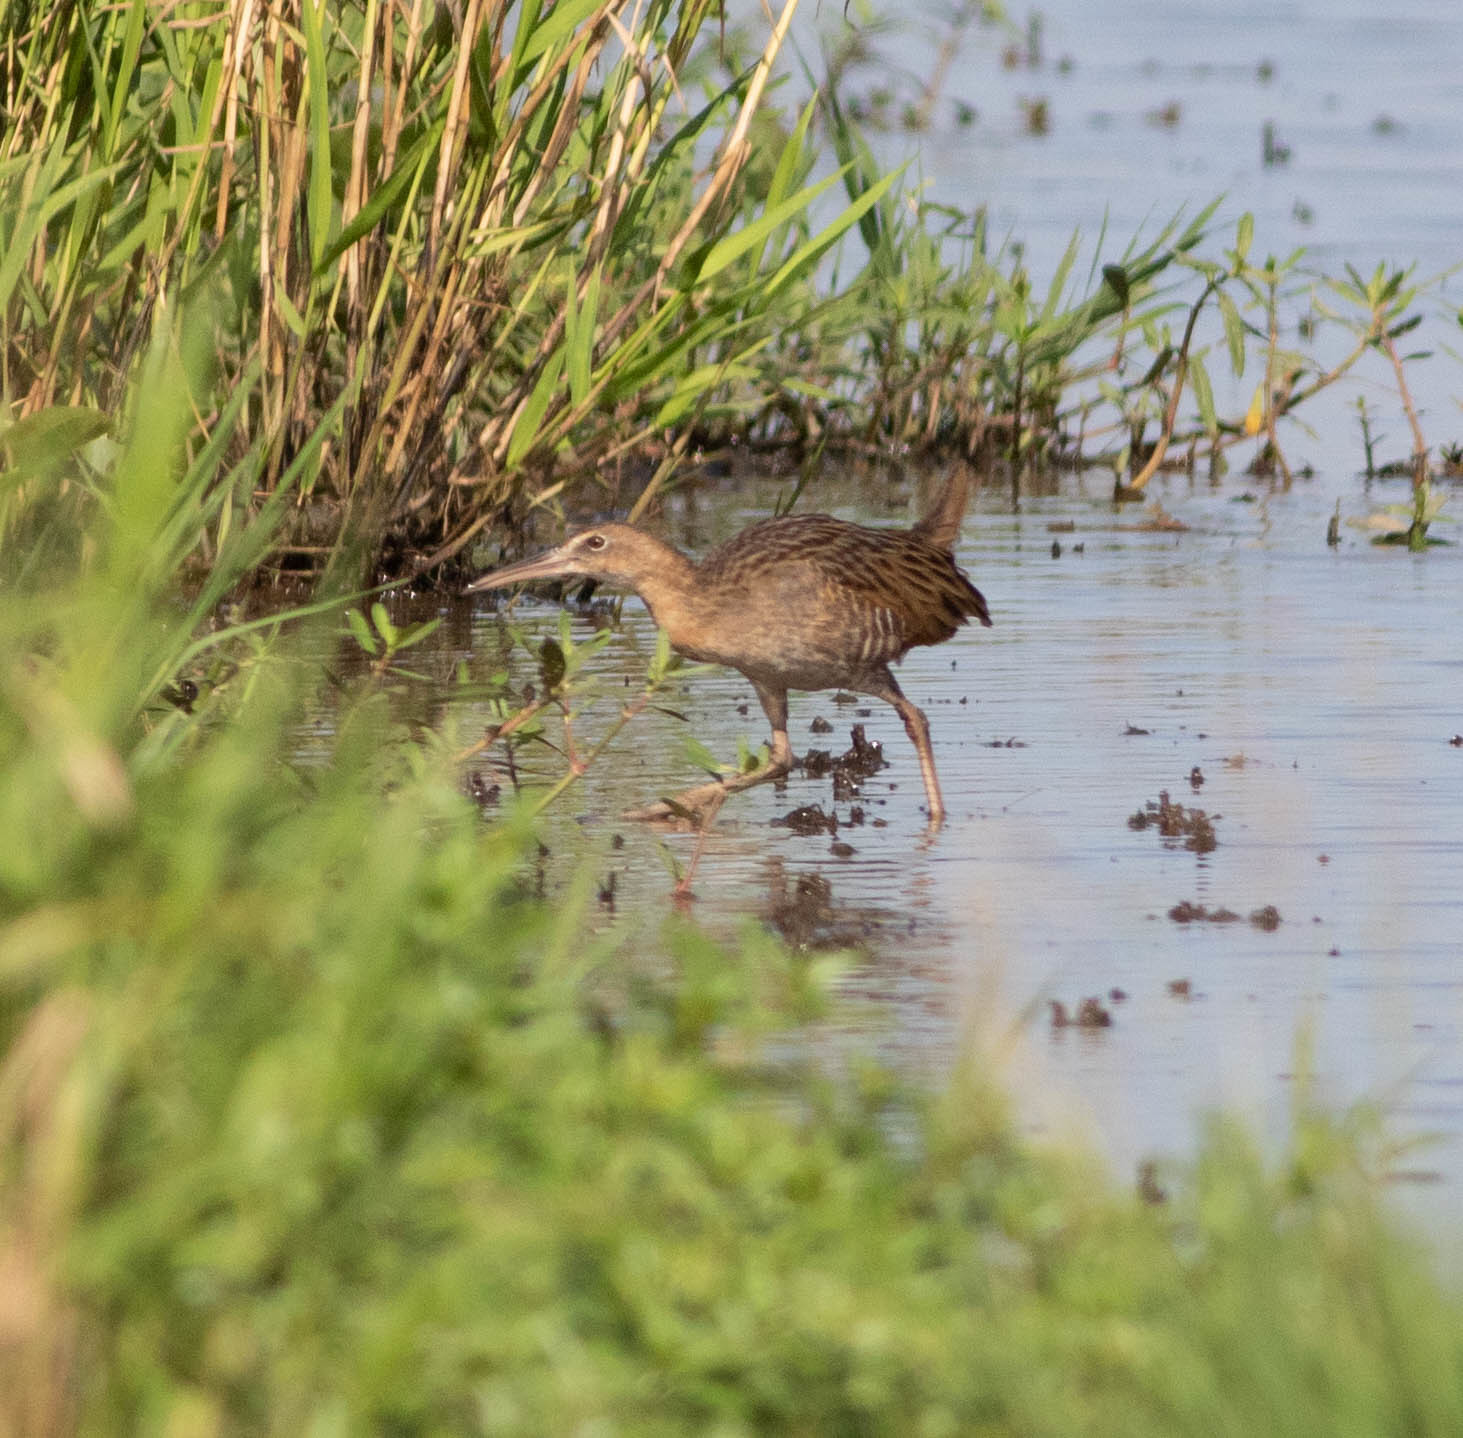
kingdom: Animalia
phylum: Chordata
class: Aves
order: Gruiformes
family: Rallidae
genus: Rallus
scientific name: Rallus elegans
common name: King rail
